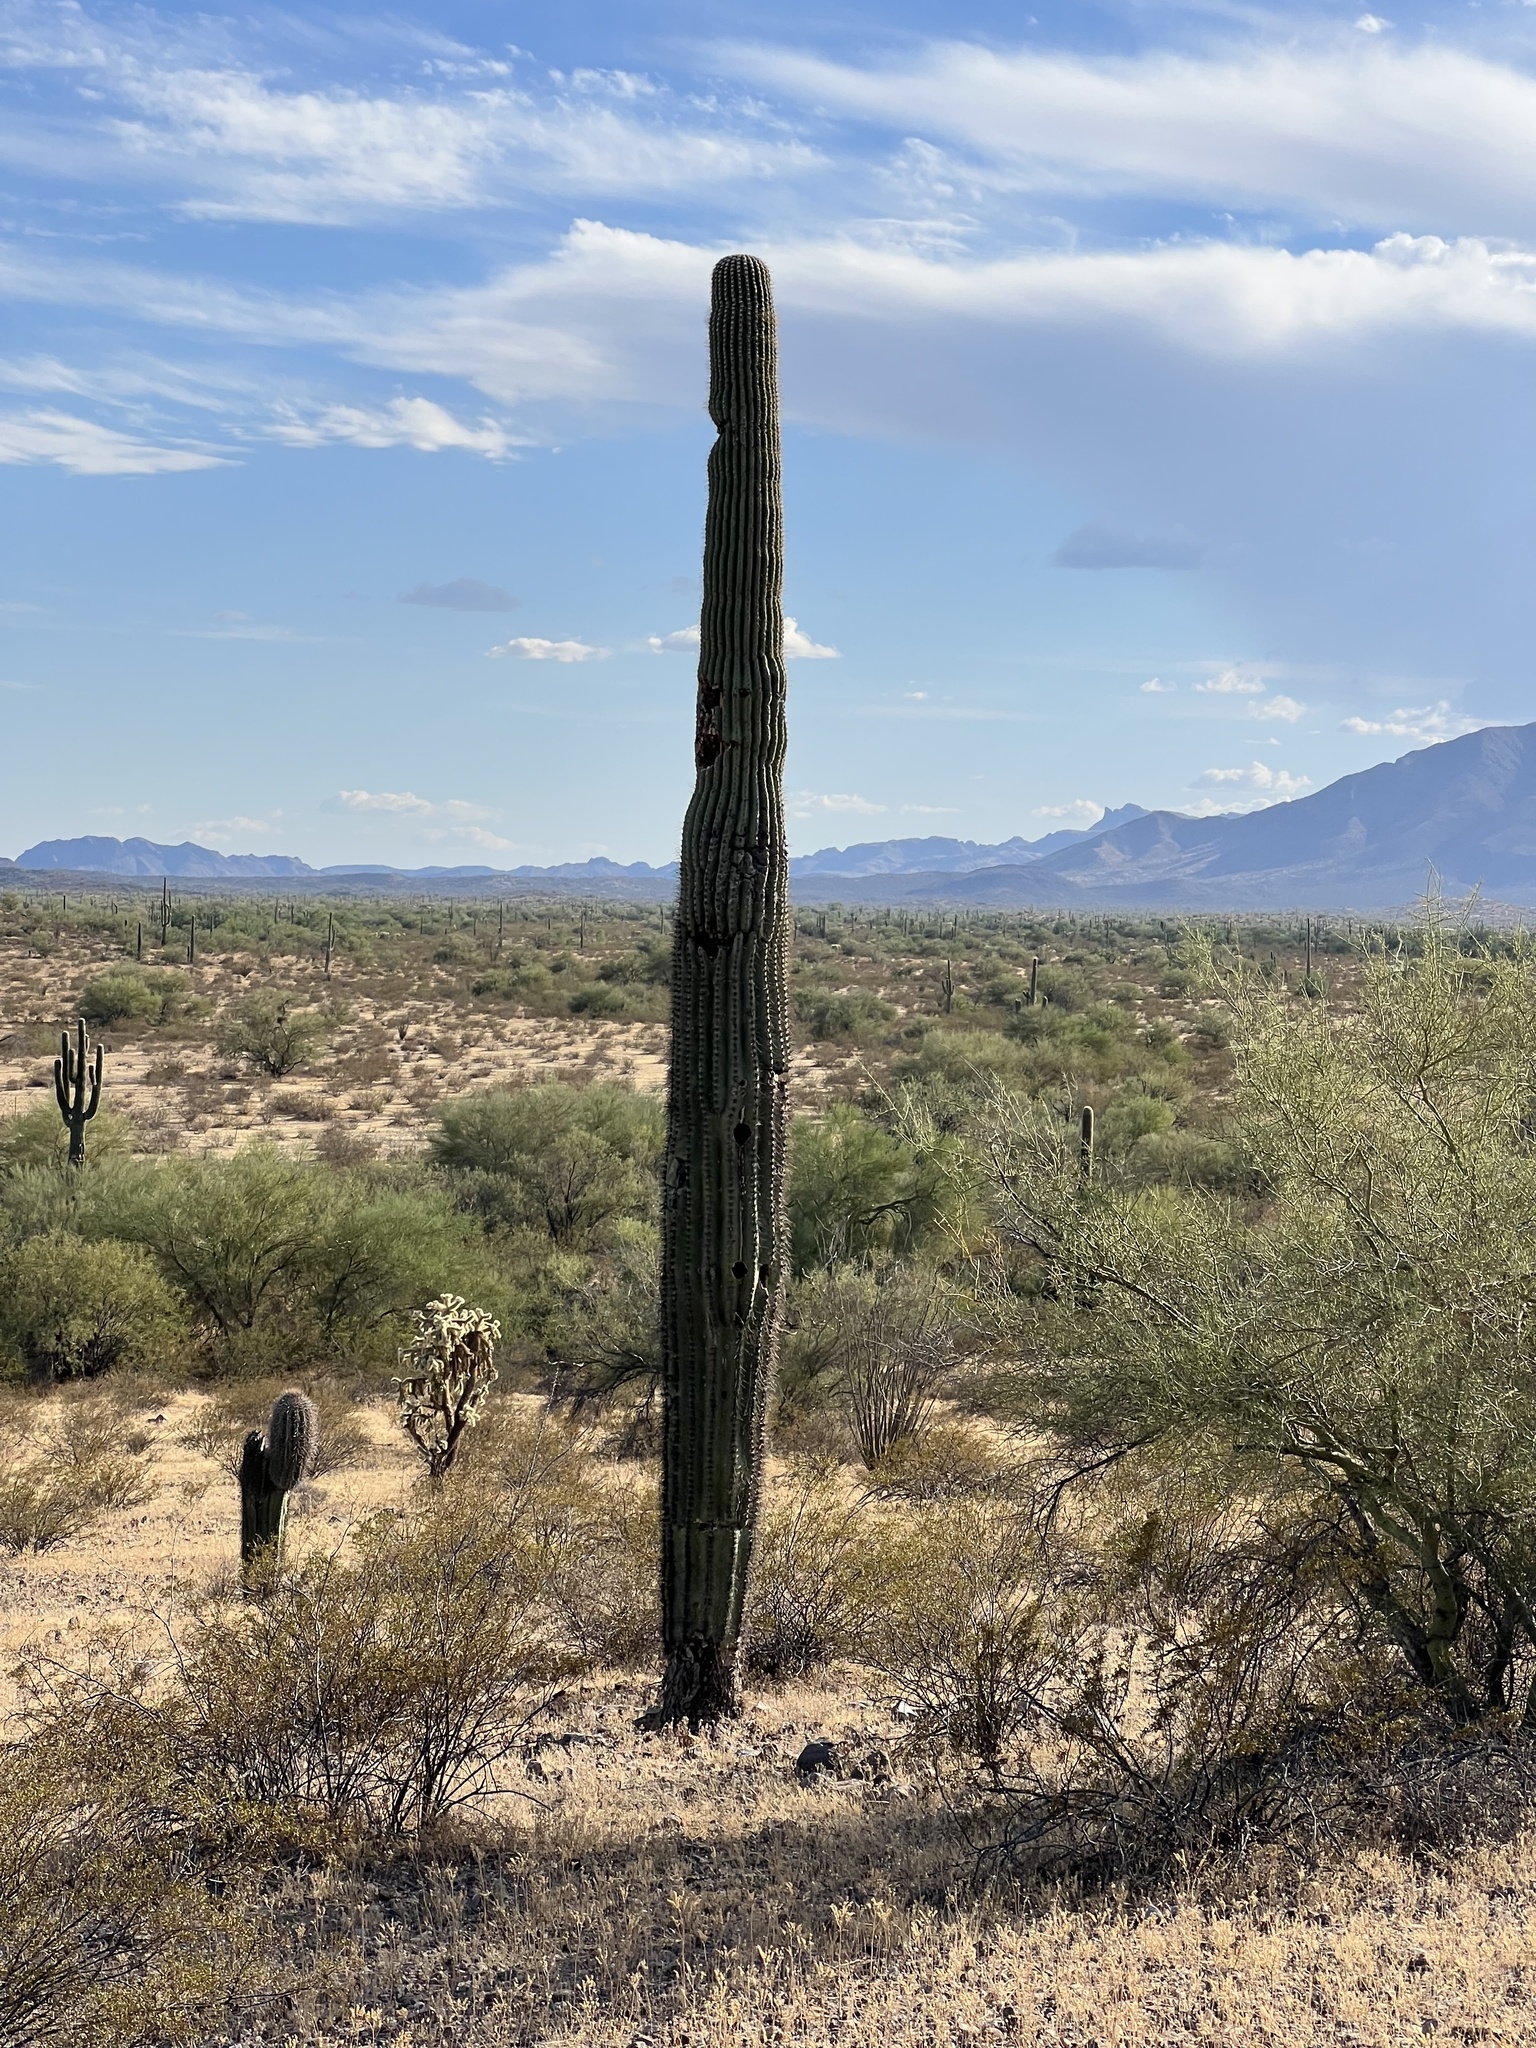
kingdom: Plantae
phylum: Tracheophyta
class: Magnoliopsida
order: Caryophyllales
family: Cactaceae
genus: Carnegiea
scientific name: Carnegiea gigantea
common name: Saguaro
